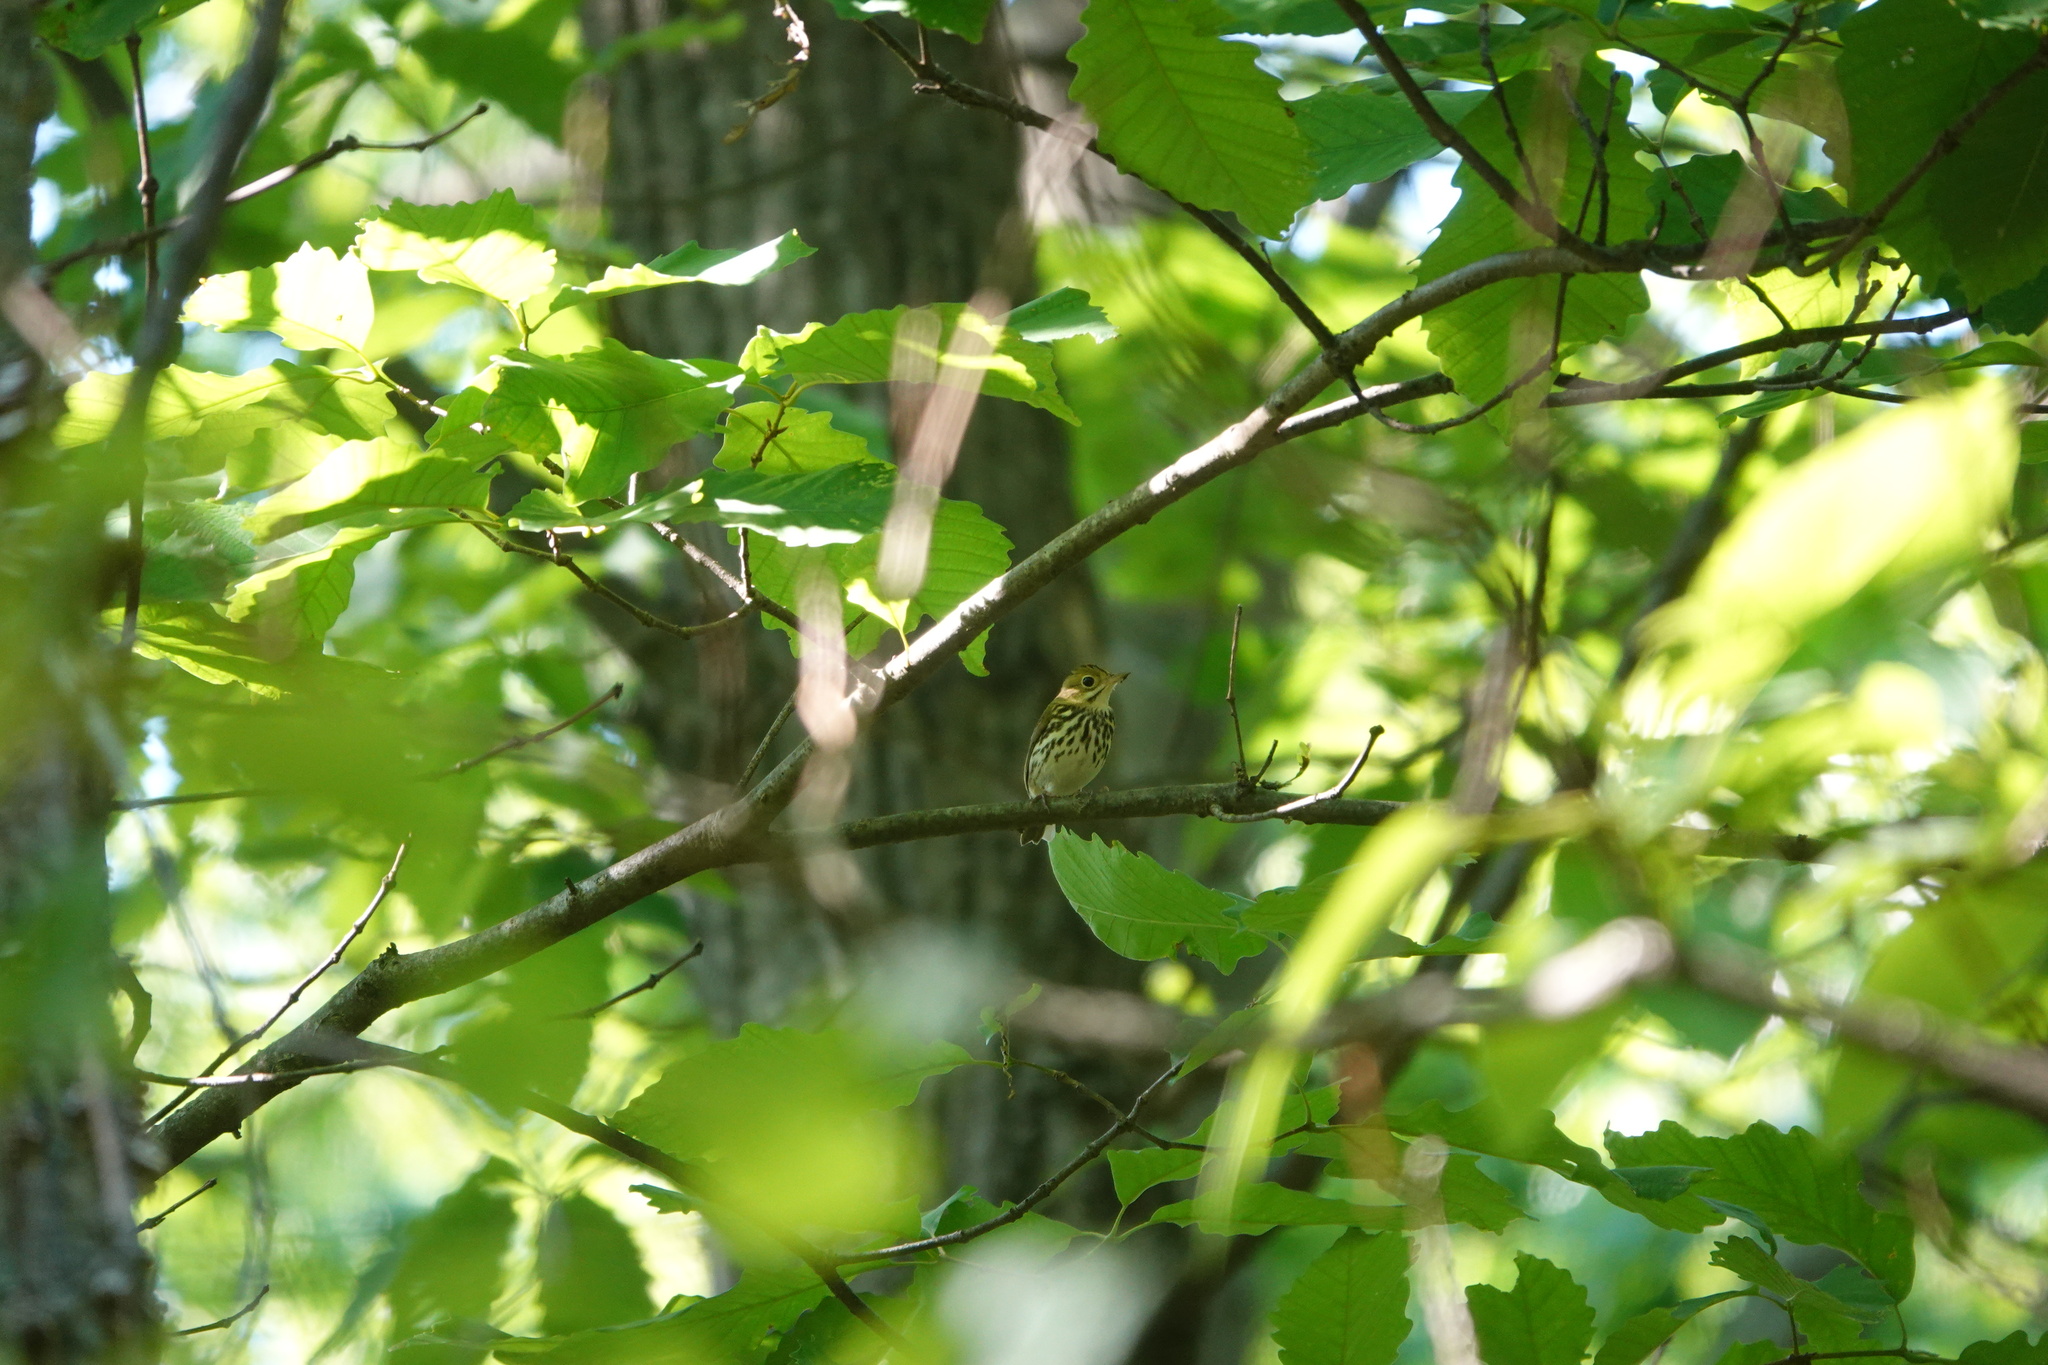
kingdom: Animalia
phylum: Chordata
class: Aves
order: Passeriformes
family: Parulidae
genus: Seiurus
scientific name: Seiurus aurocapilla
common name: Ovenbird
